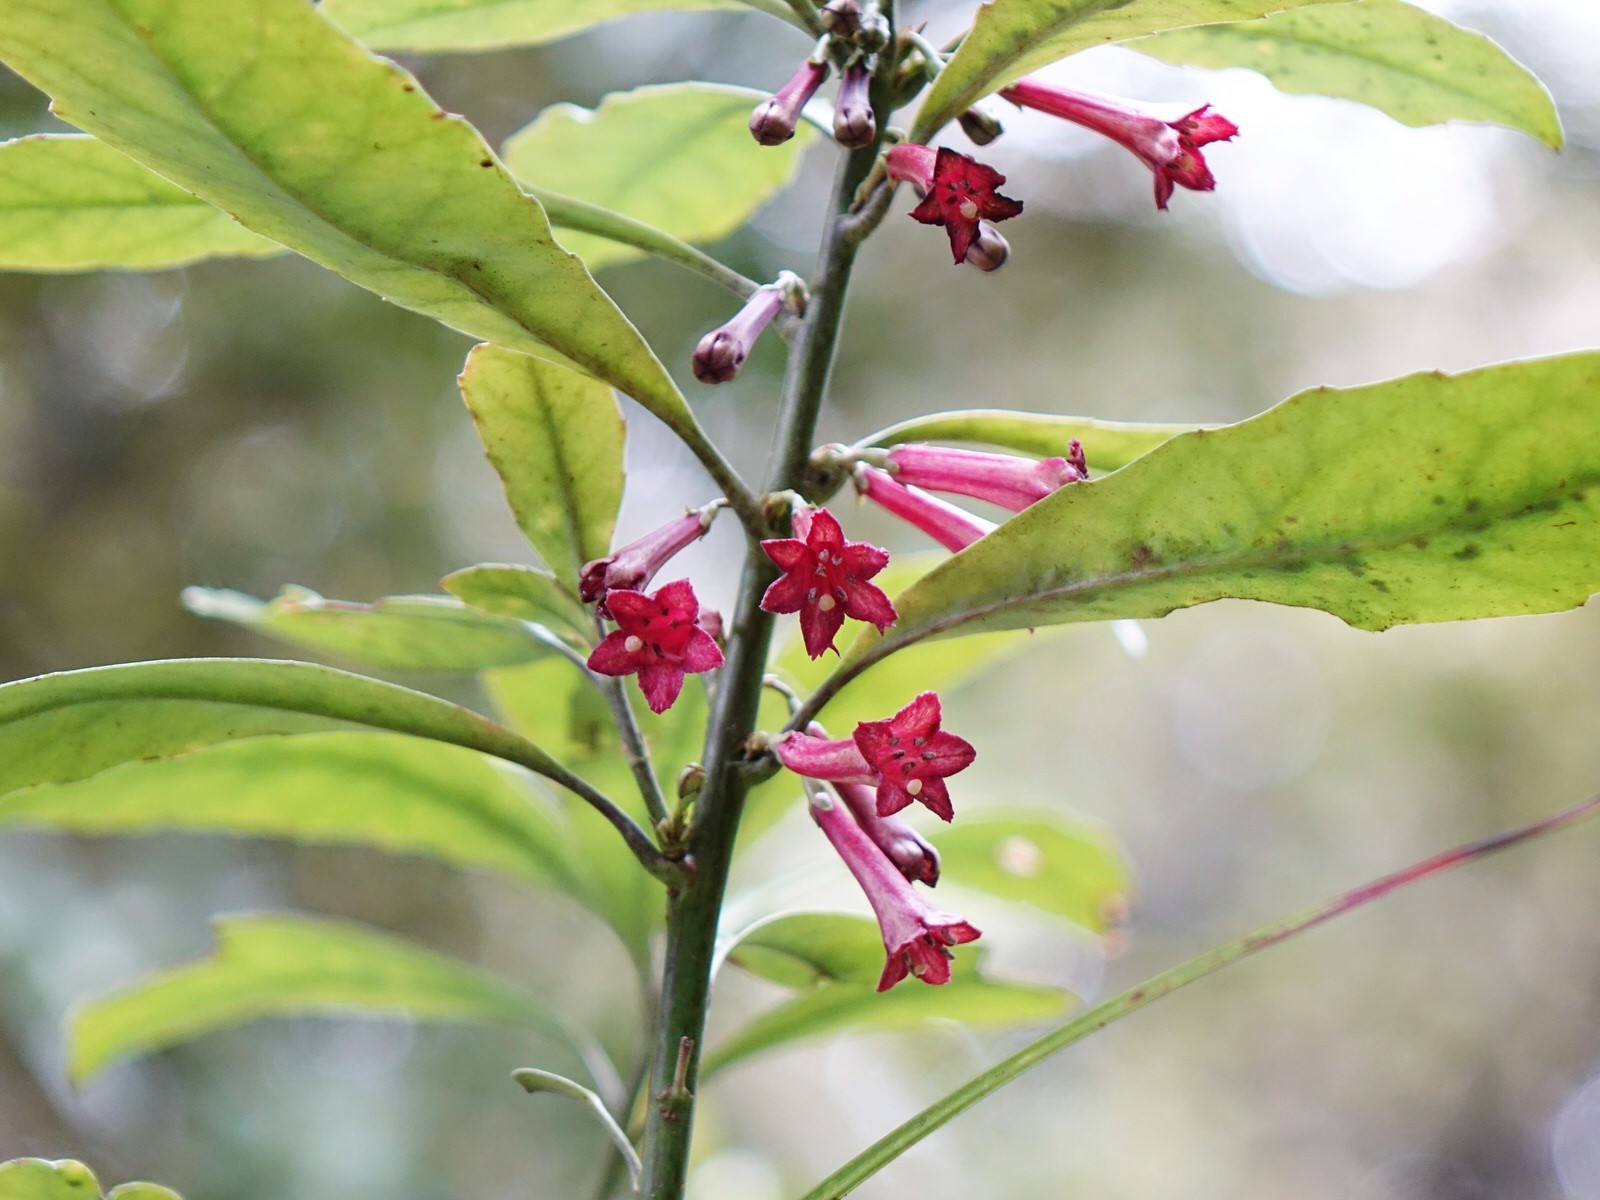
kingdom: Plantae
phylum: Tracheophyta
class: Magnoliopsida
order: Asterales
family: Alseuosmiaceae
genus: Alseuosmia
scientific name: Alseuosmia macrophylla
